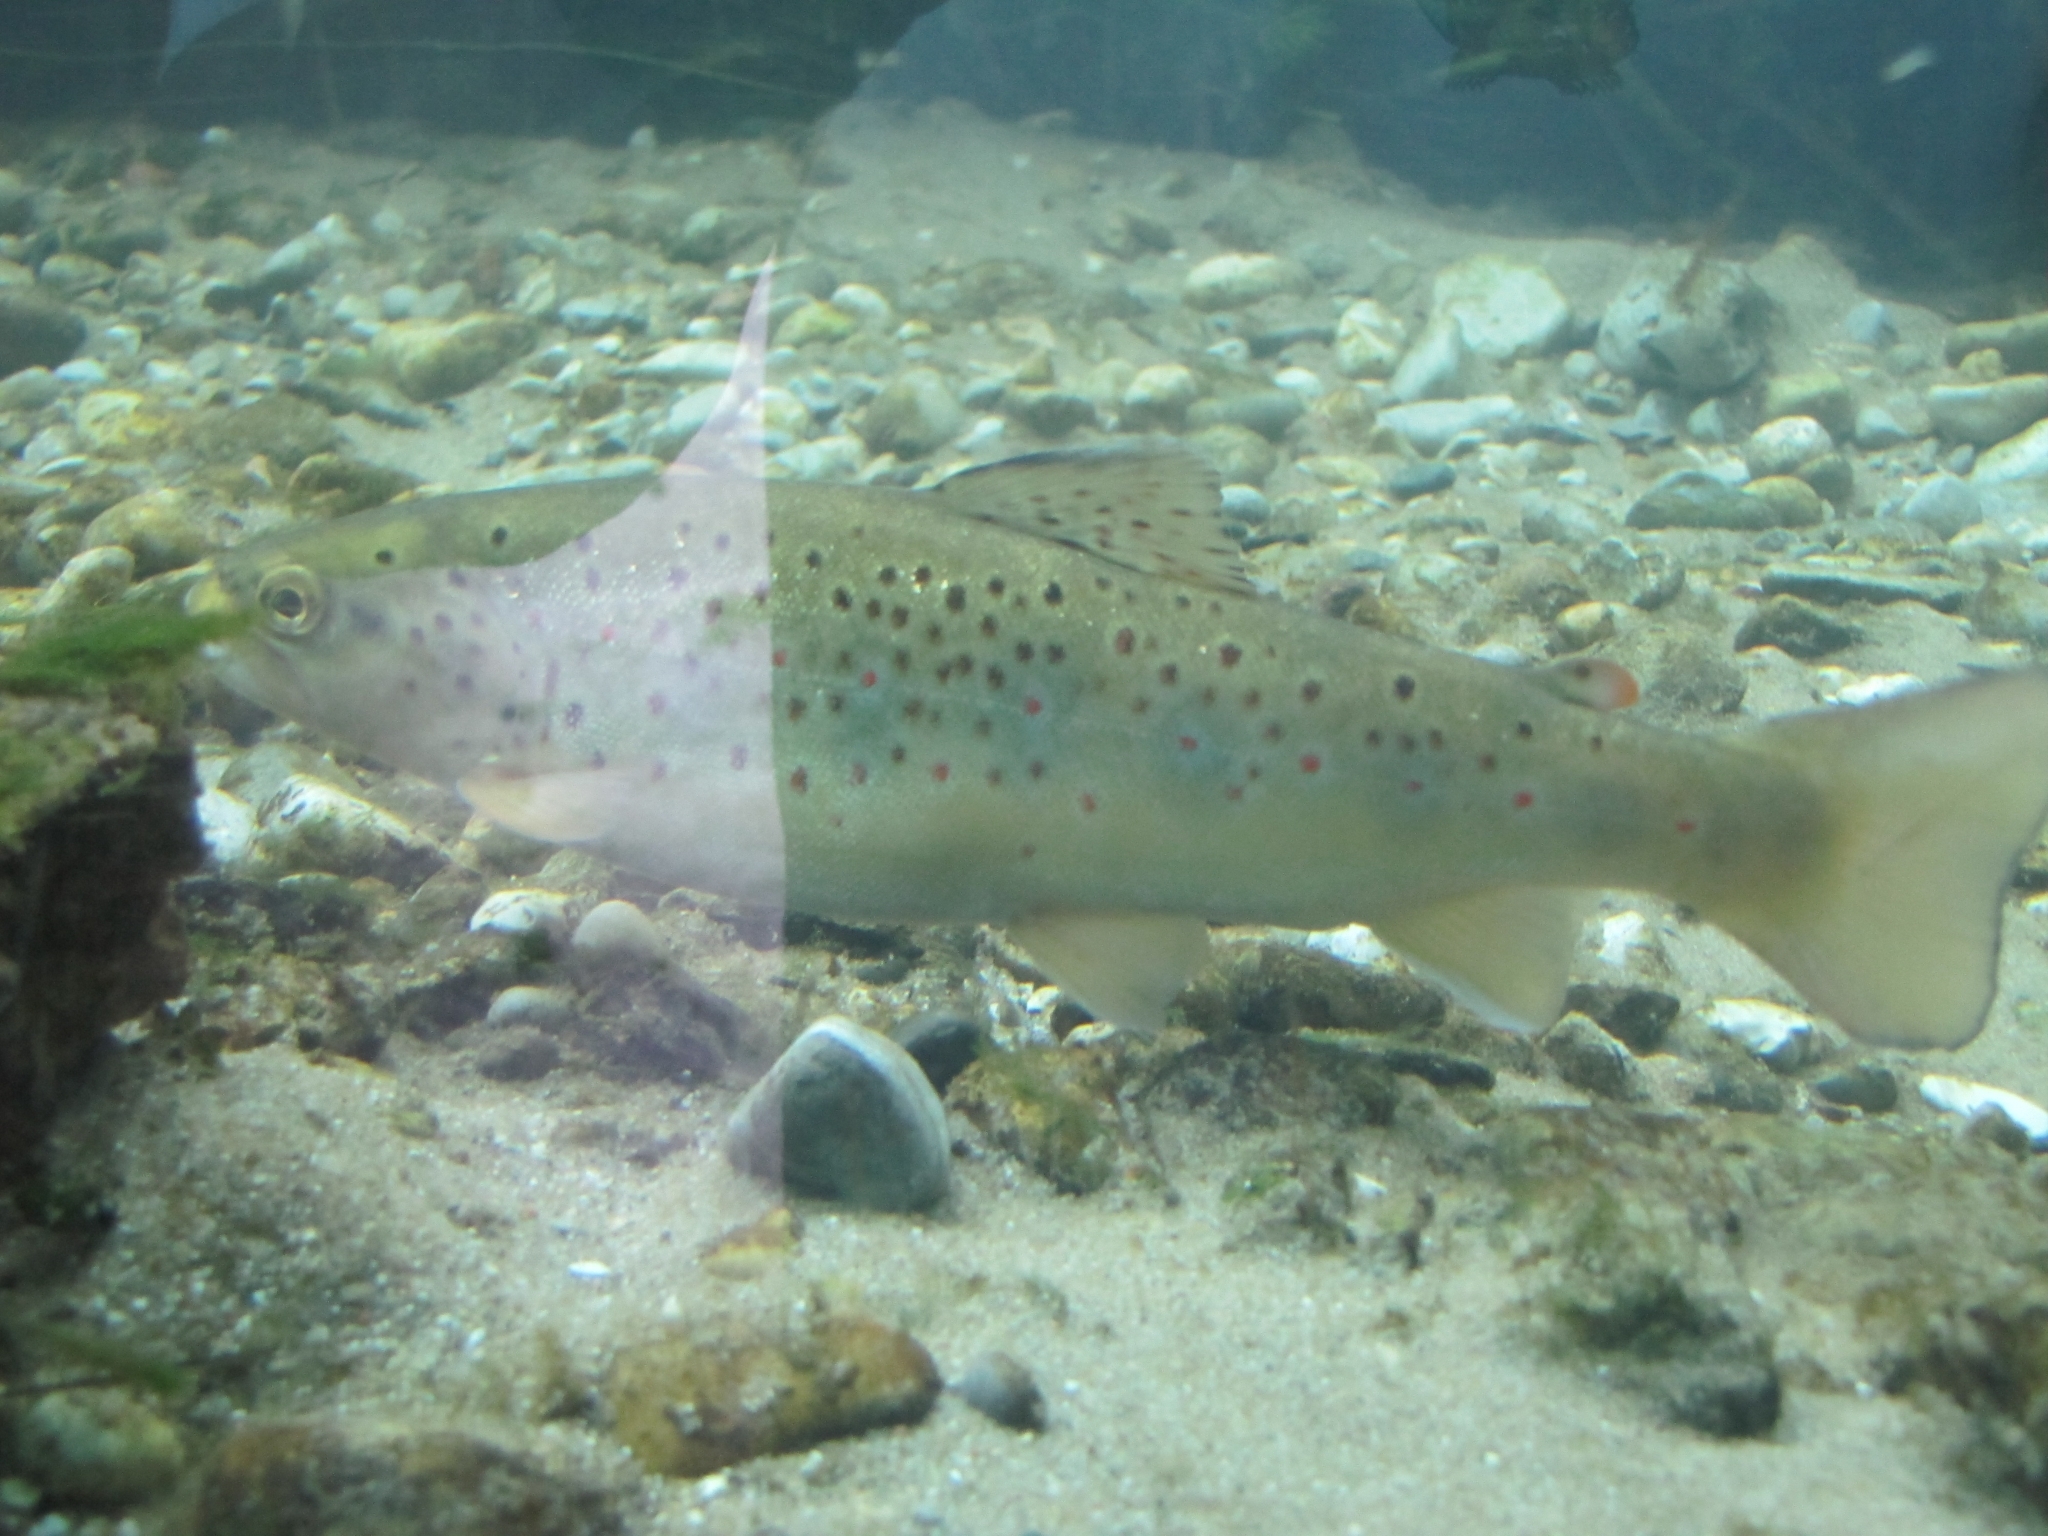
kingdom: Animalia
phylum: Chordata
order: Salmoniformes
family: Salmonidae
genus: Salmo
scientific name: Salmo trutta
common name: Brown trout
